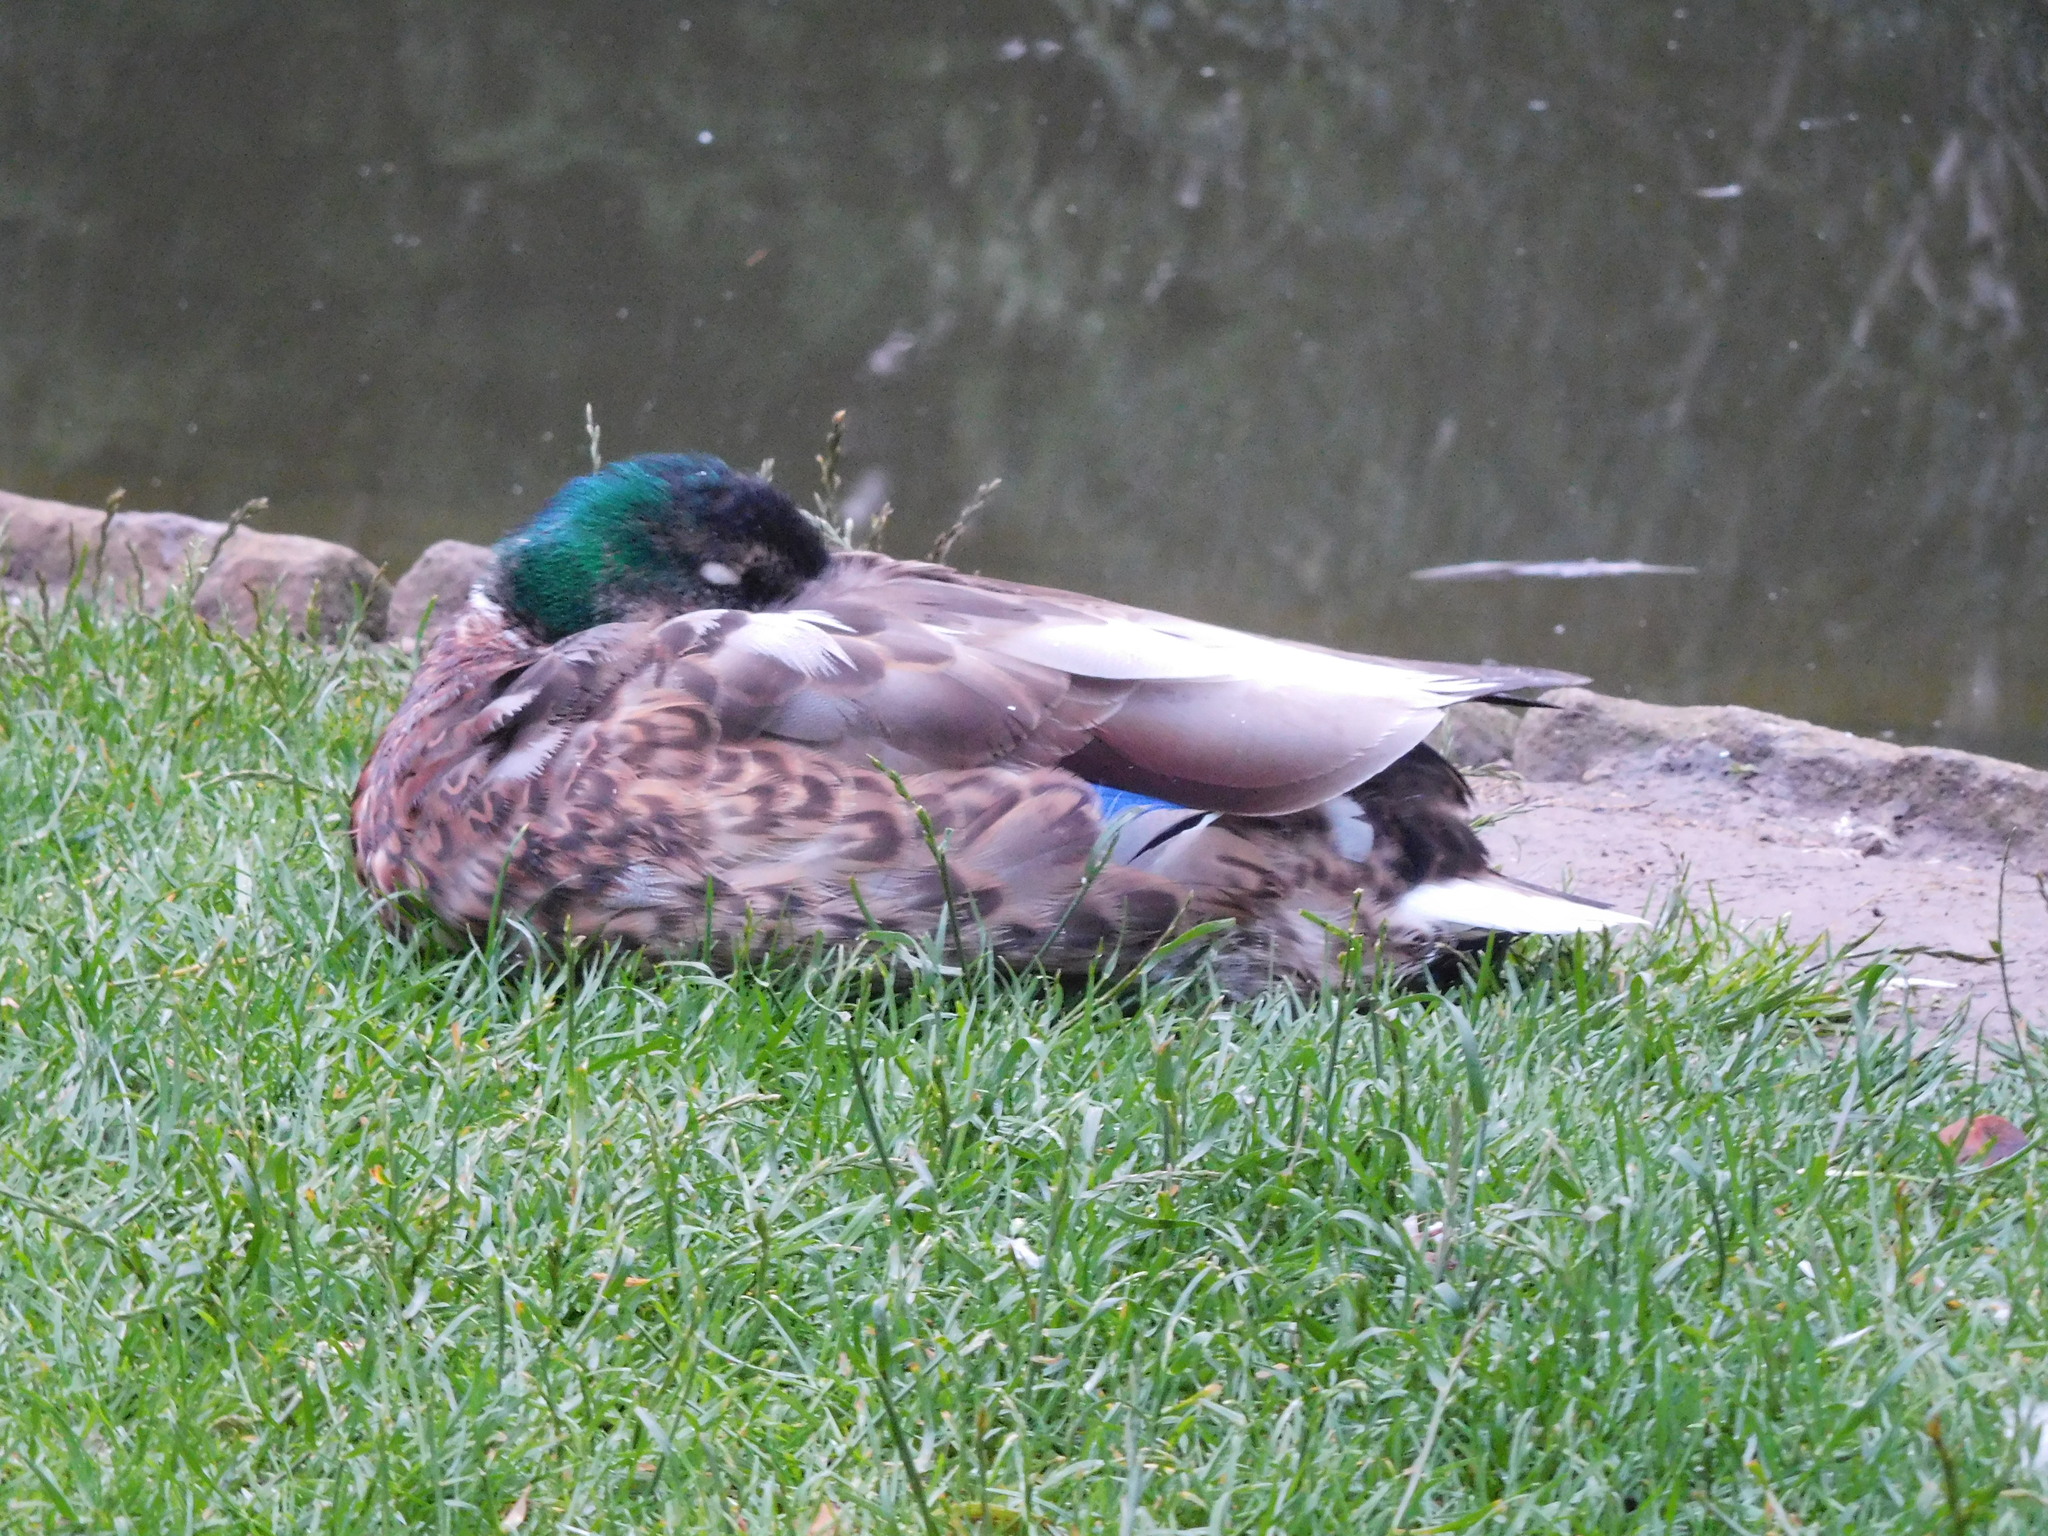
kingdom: Animalia
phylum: Chordata
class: Aves
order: Anseriformes
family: Anatidae
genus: Anas
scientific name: Anas platyrhynchos
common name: Mallard
